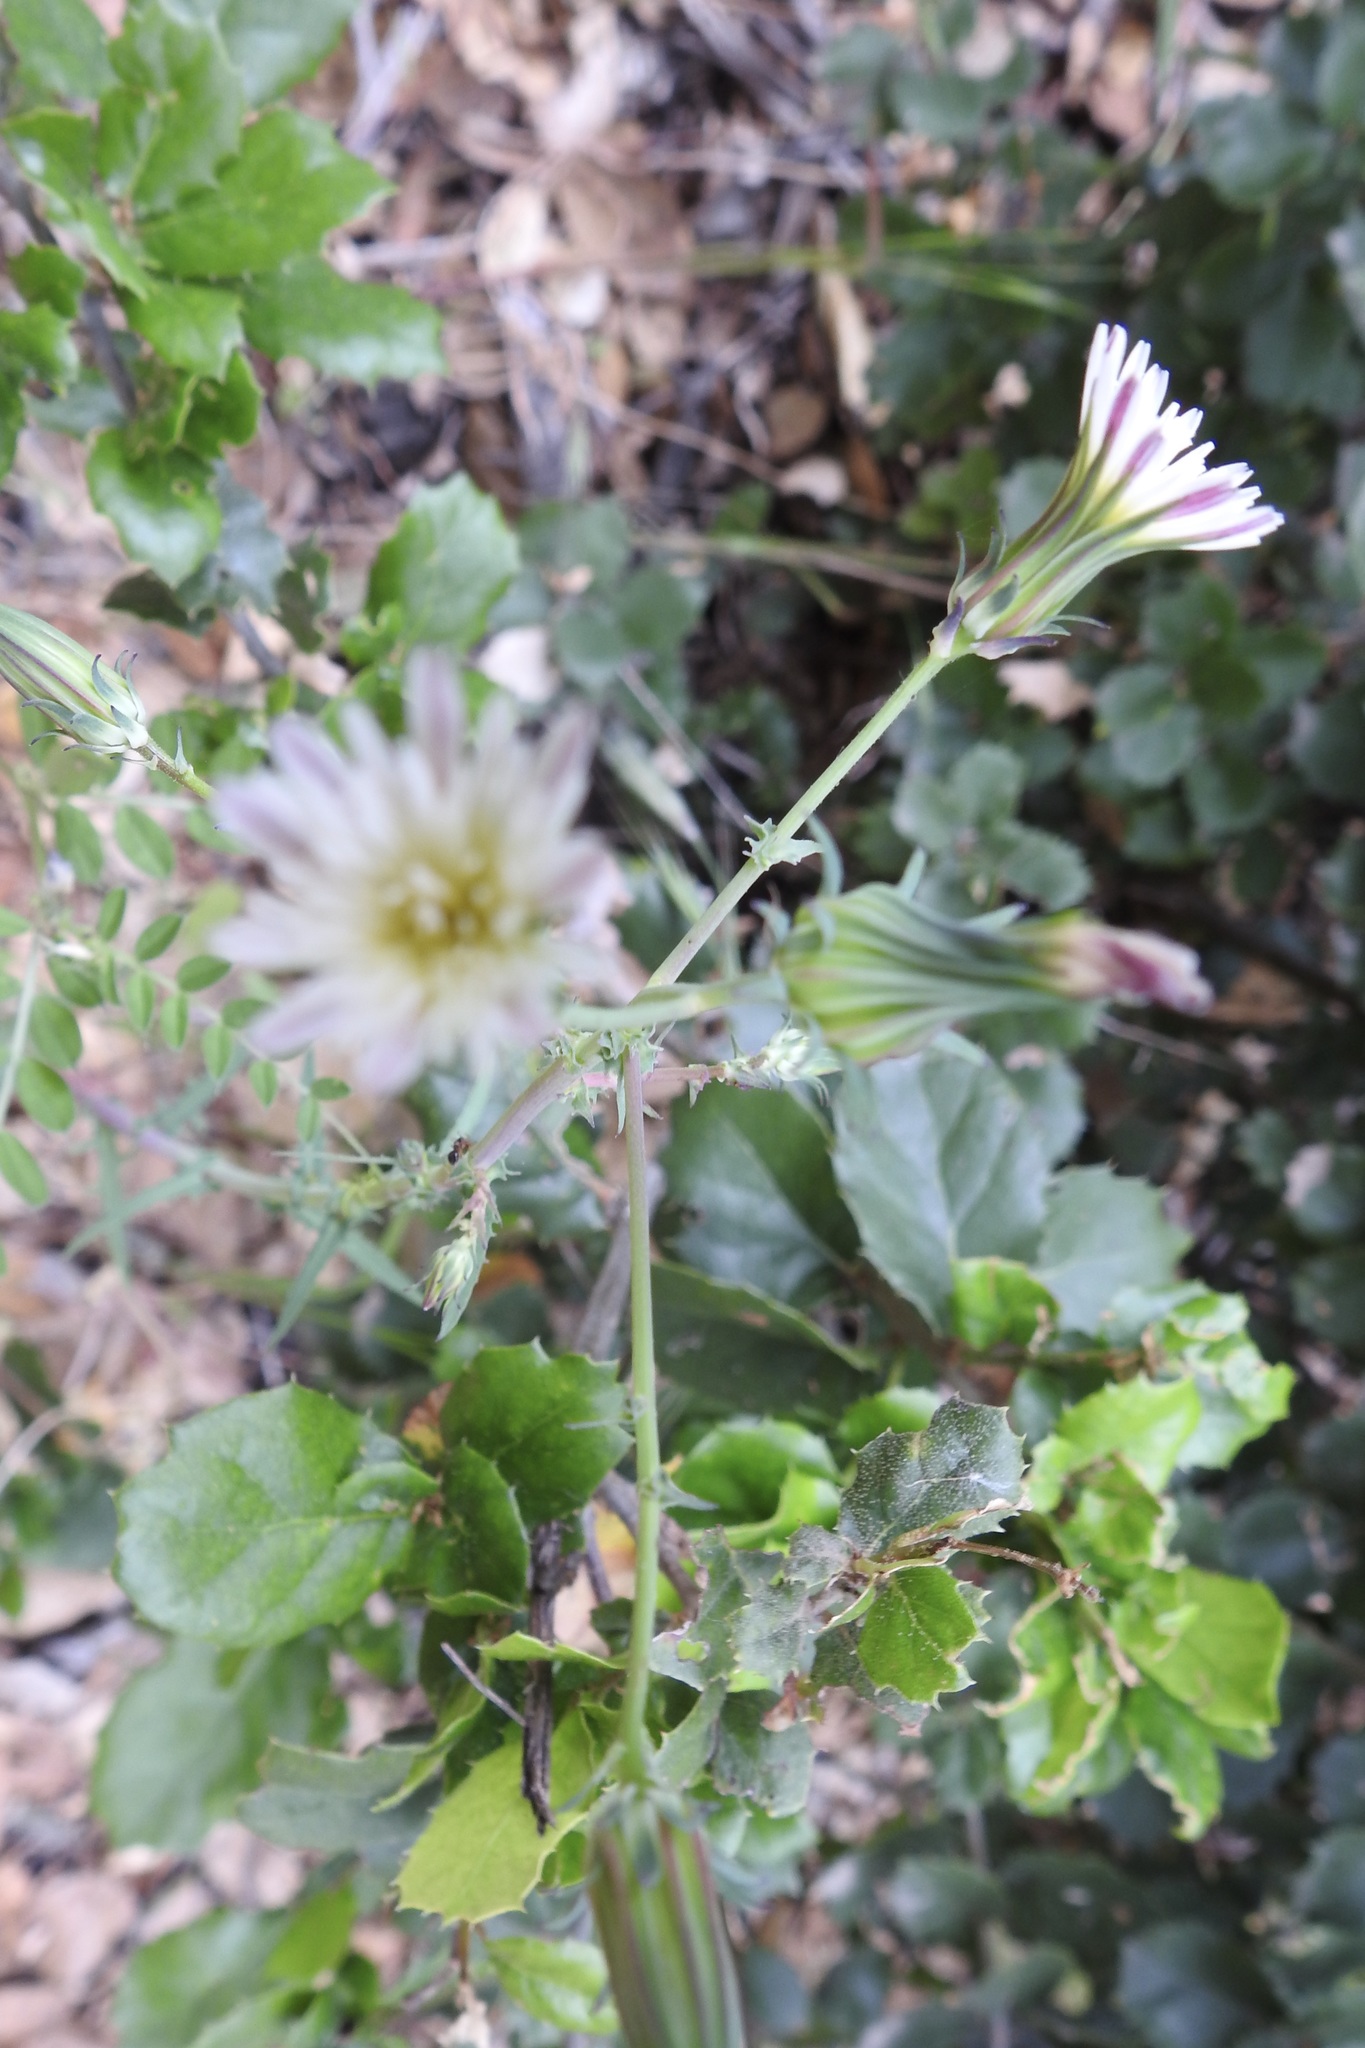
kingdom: Plantae
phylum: Tracheophyta
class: Magnoliopsida
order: Asterales
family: Asteraceae
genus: Rafinesquia
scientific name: Rafinesquia californica
